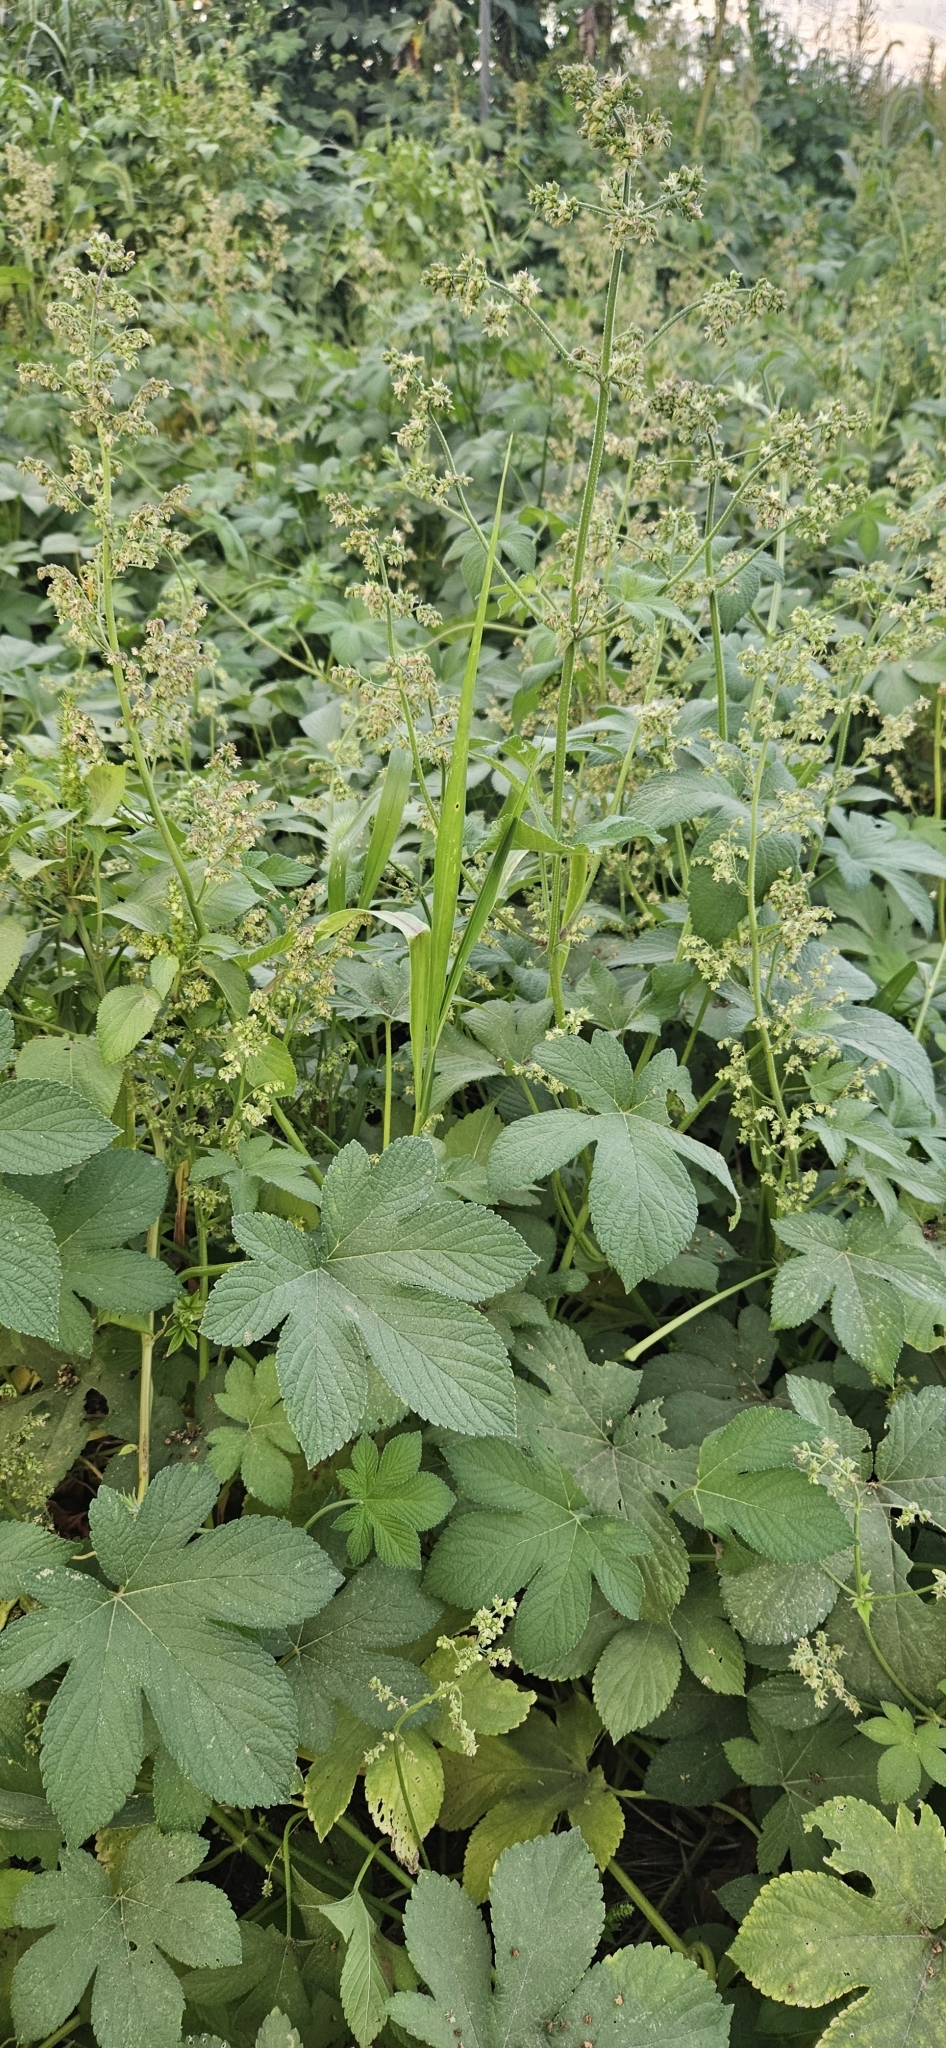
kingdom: Plantae
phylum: Tracheophyta
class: Magnoliopsida
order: Rosales
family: Cannabaceae
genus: Humulus
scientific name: Humulus scandens
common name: Japanese hop
